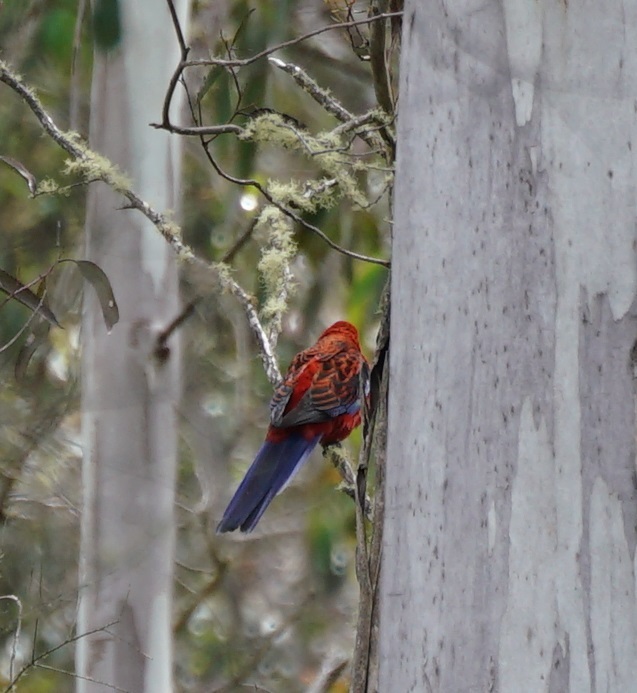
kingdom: Animalia
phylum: Chordata
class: Aves
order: Psittaciformes
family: Psittacidae
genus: Platycercus
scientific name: Platycercus elegans
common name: Crimson rosella
